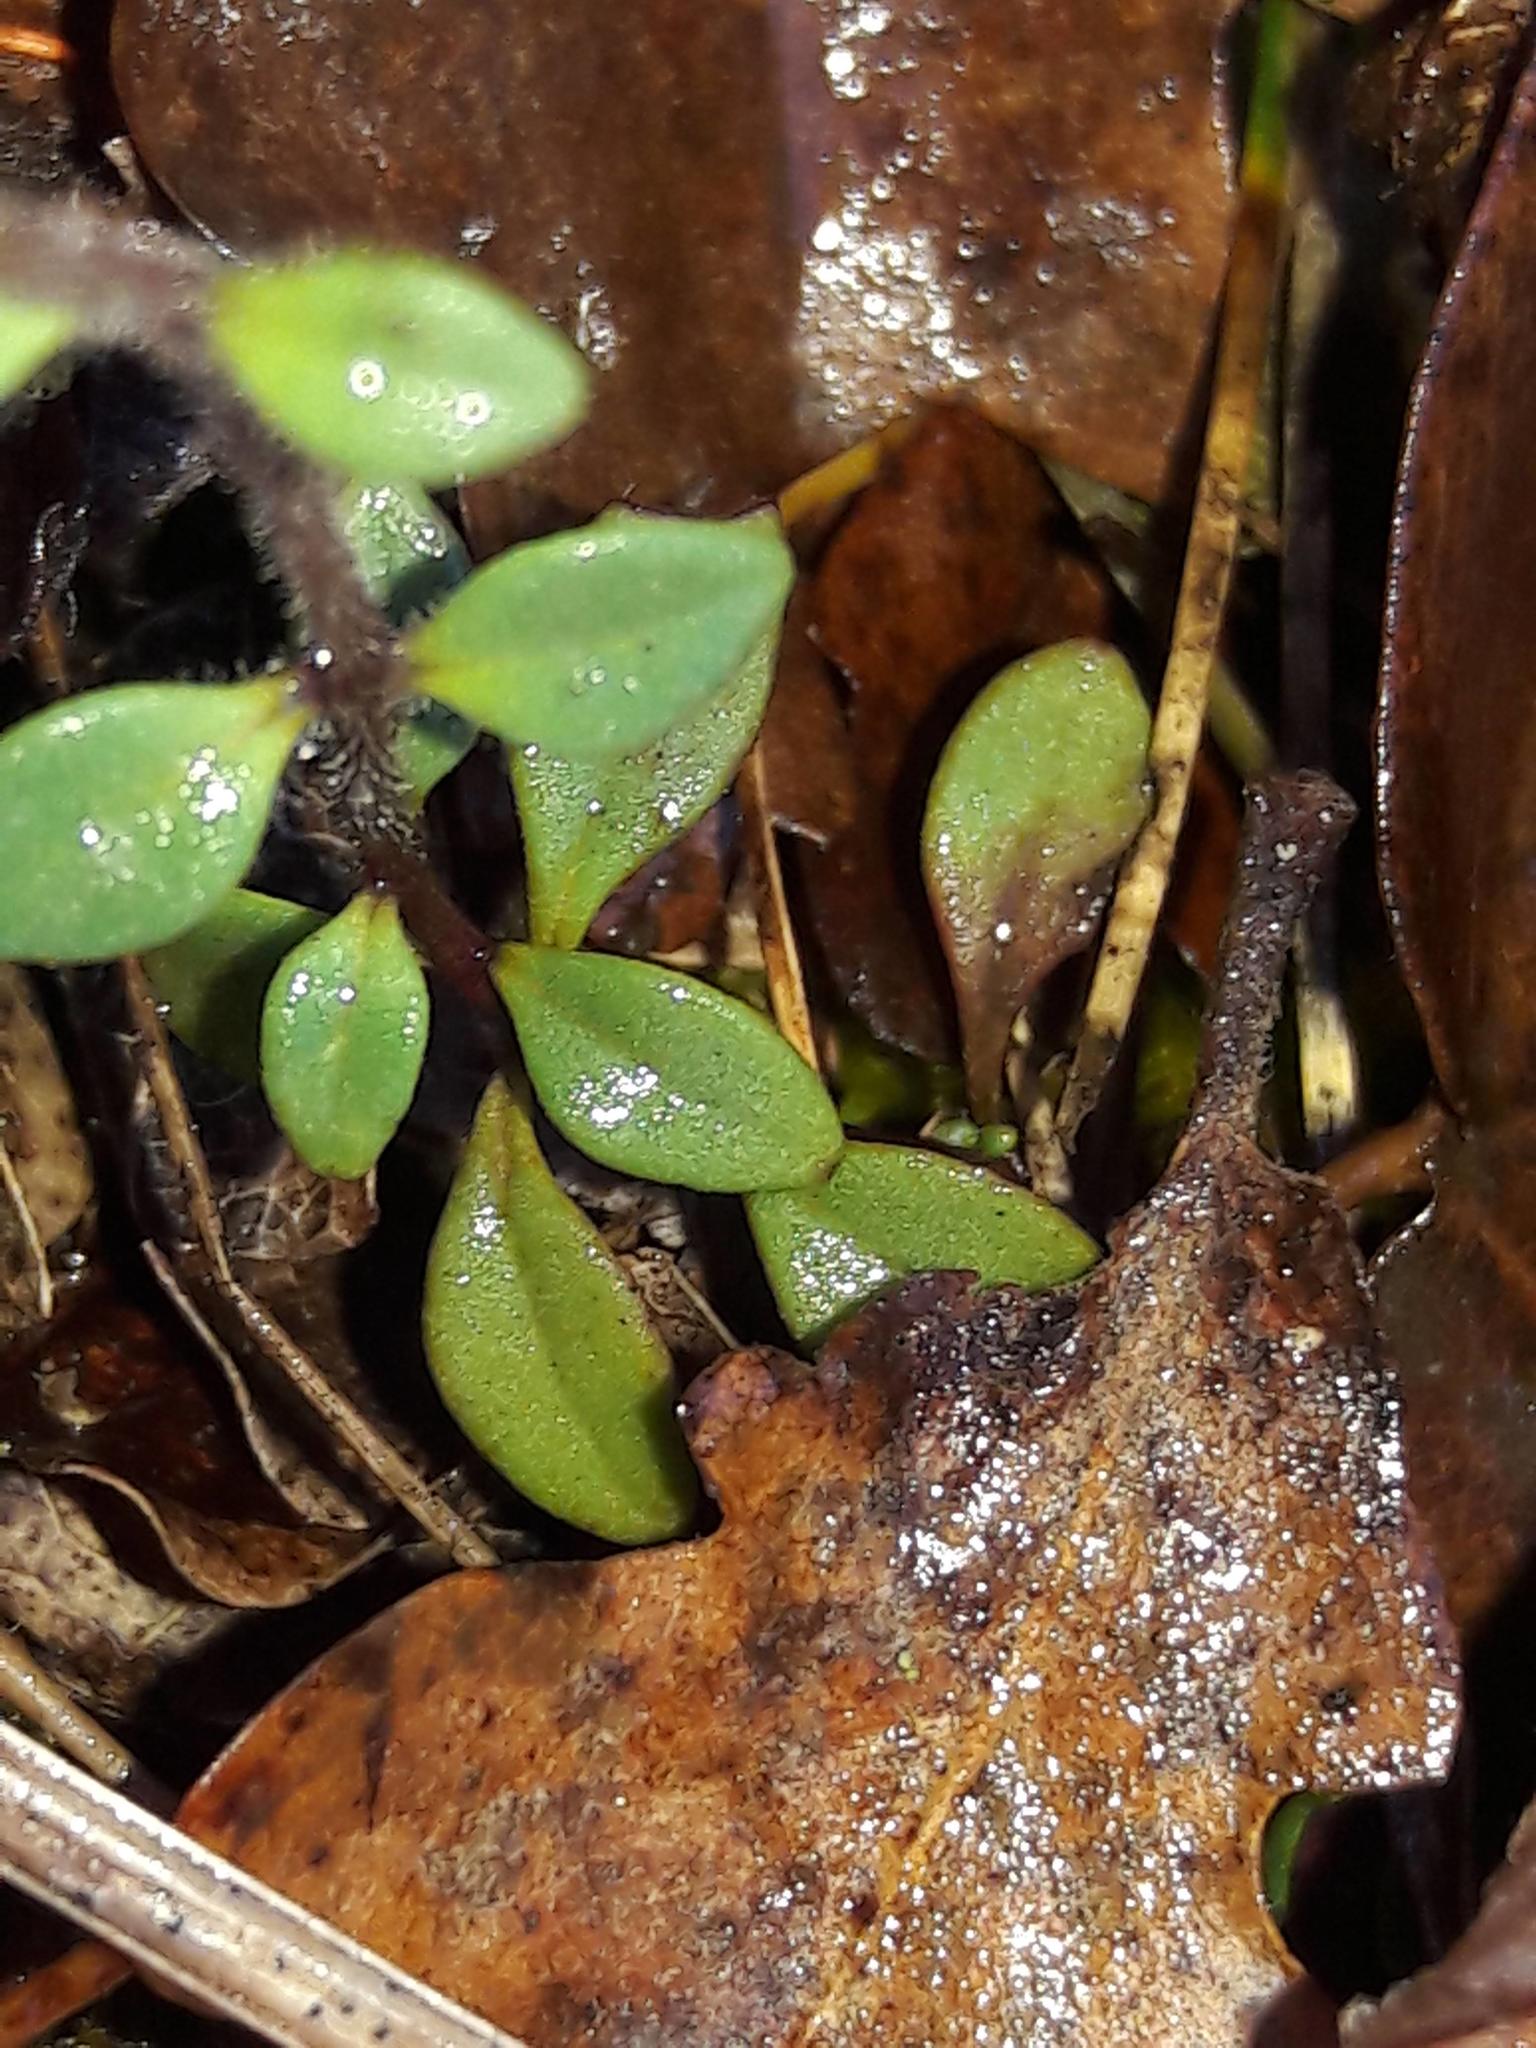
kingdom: Plantae
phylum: Tracheophyta
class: Magnoliopsida
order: Lamiales
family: Plantaginaceae
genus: Chaenorhinum
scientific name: Chaenorhinum origanifolium
